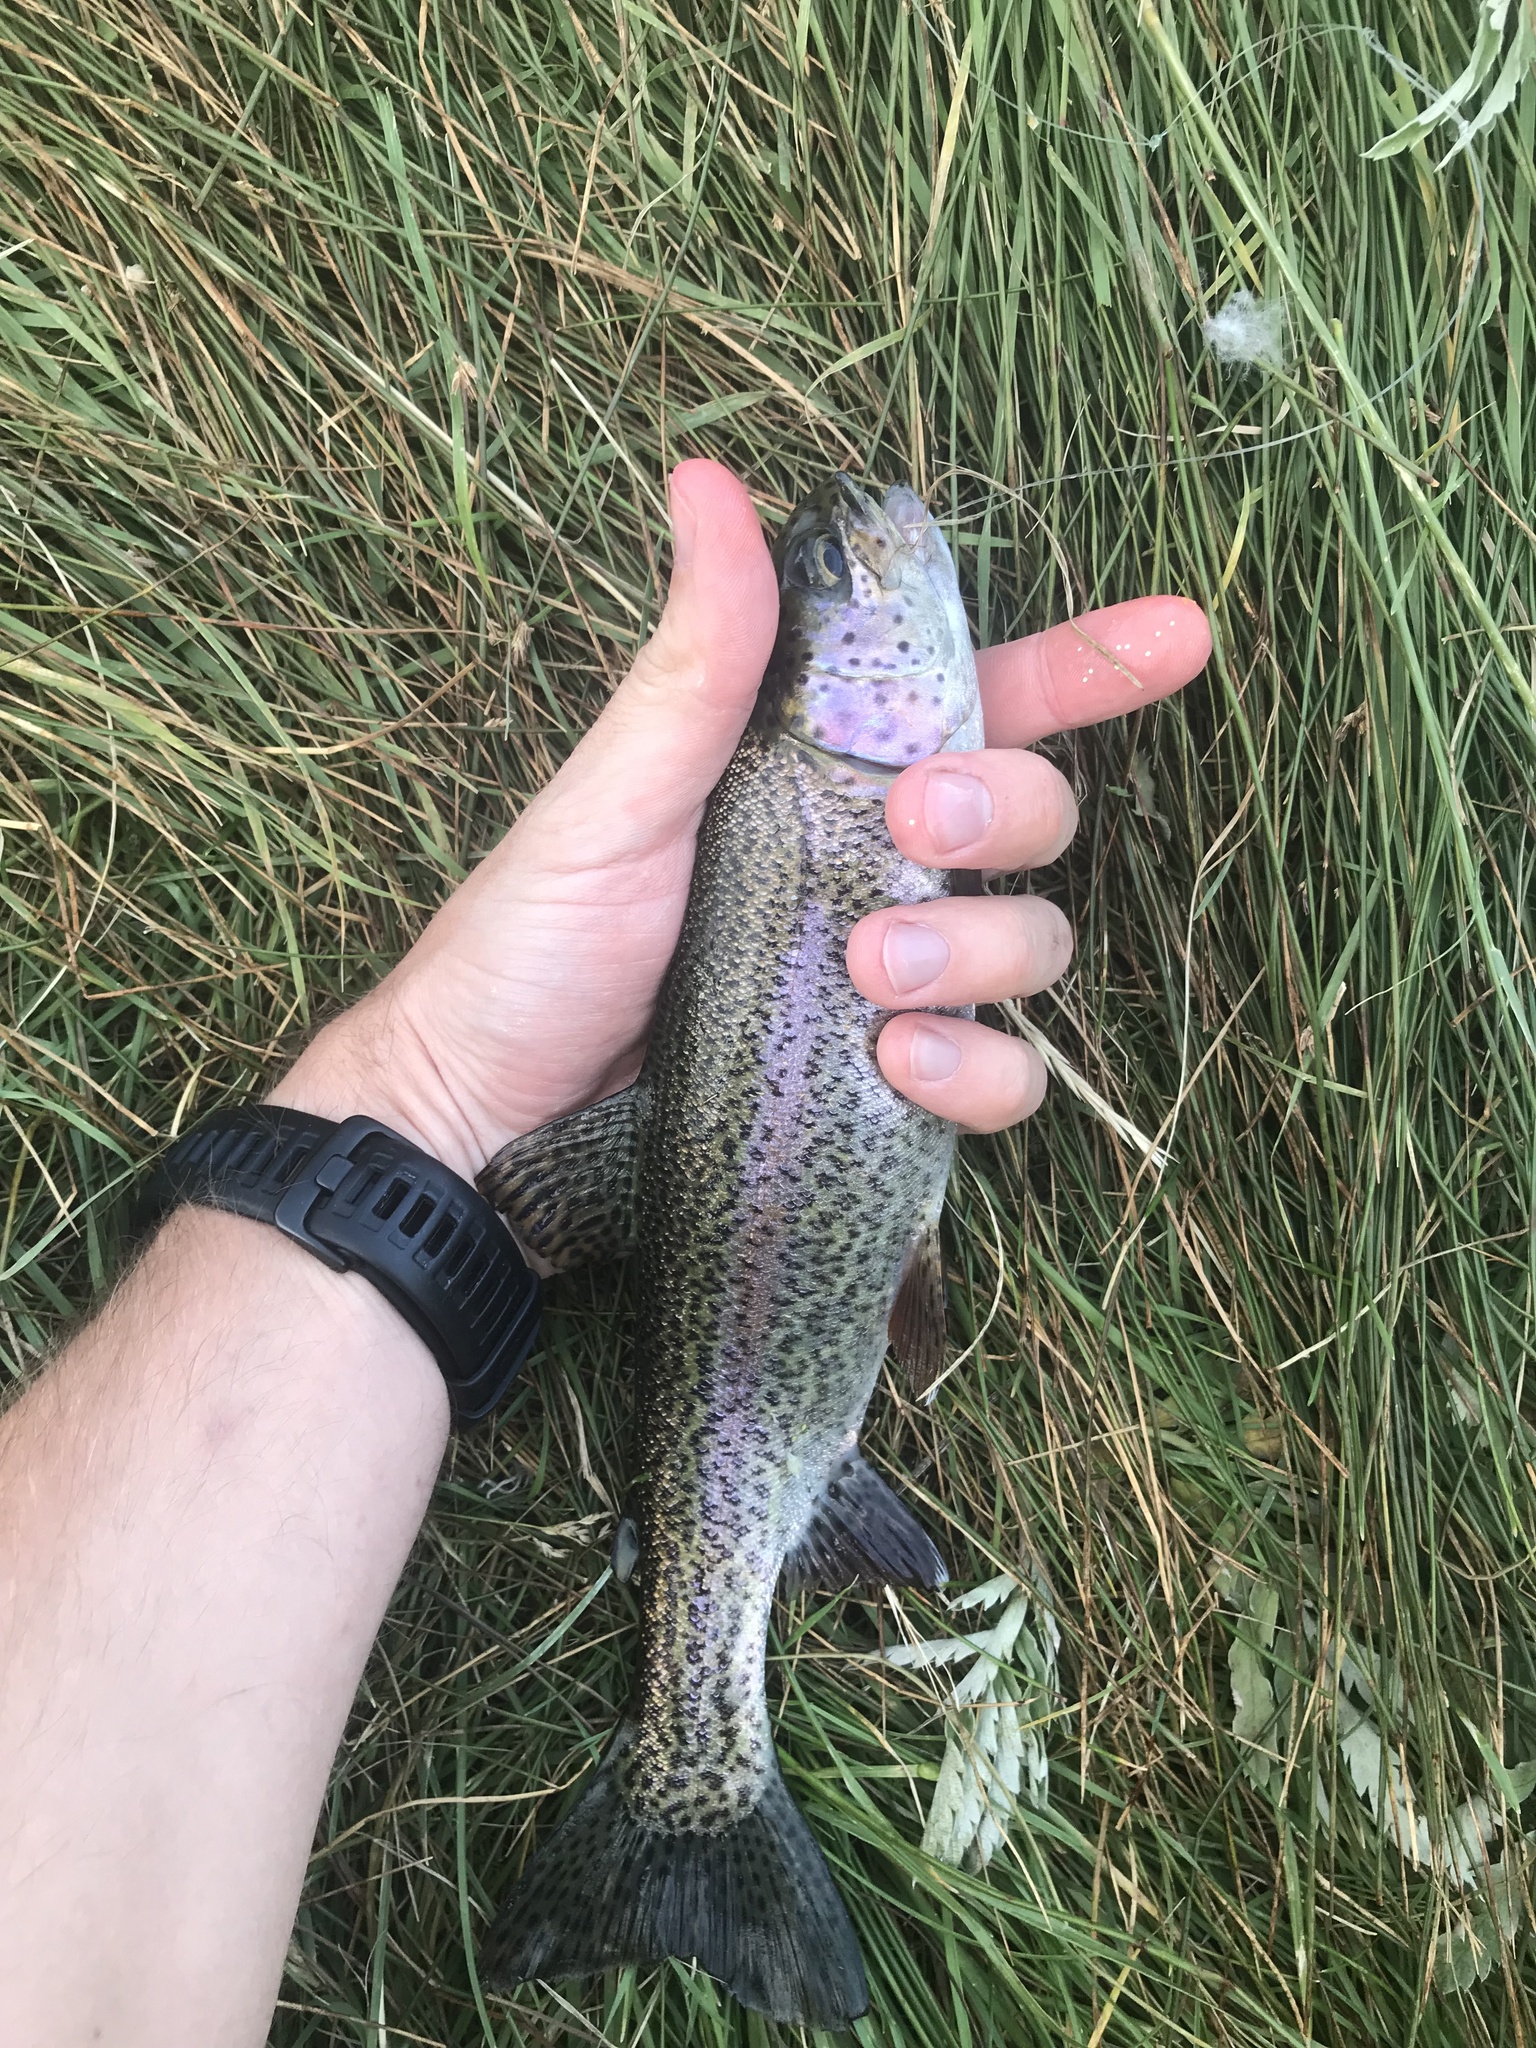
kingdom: Animalia
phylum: Chordata
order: Salmoniformes
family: Salmonidae
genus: Oncorhynchus
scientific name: Oncorhynchus mykiss
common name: Rainbow trout
